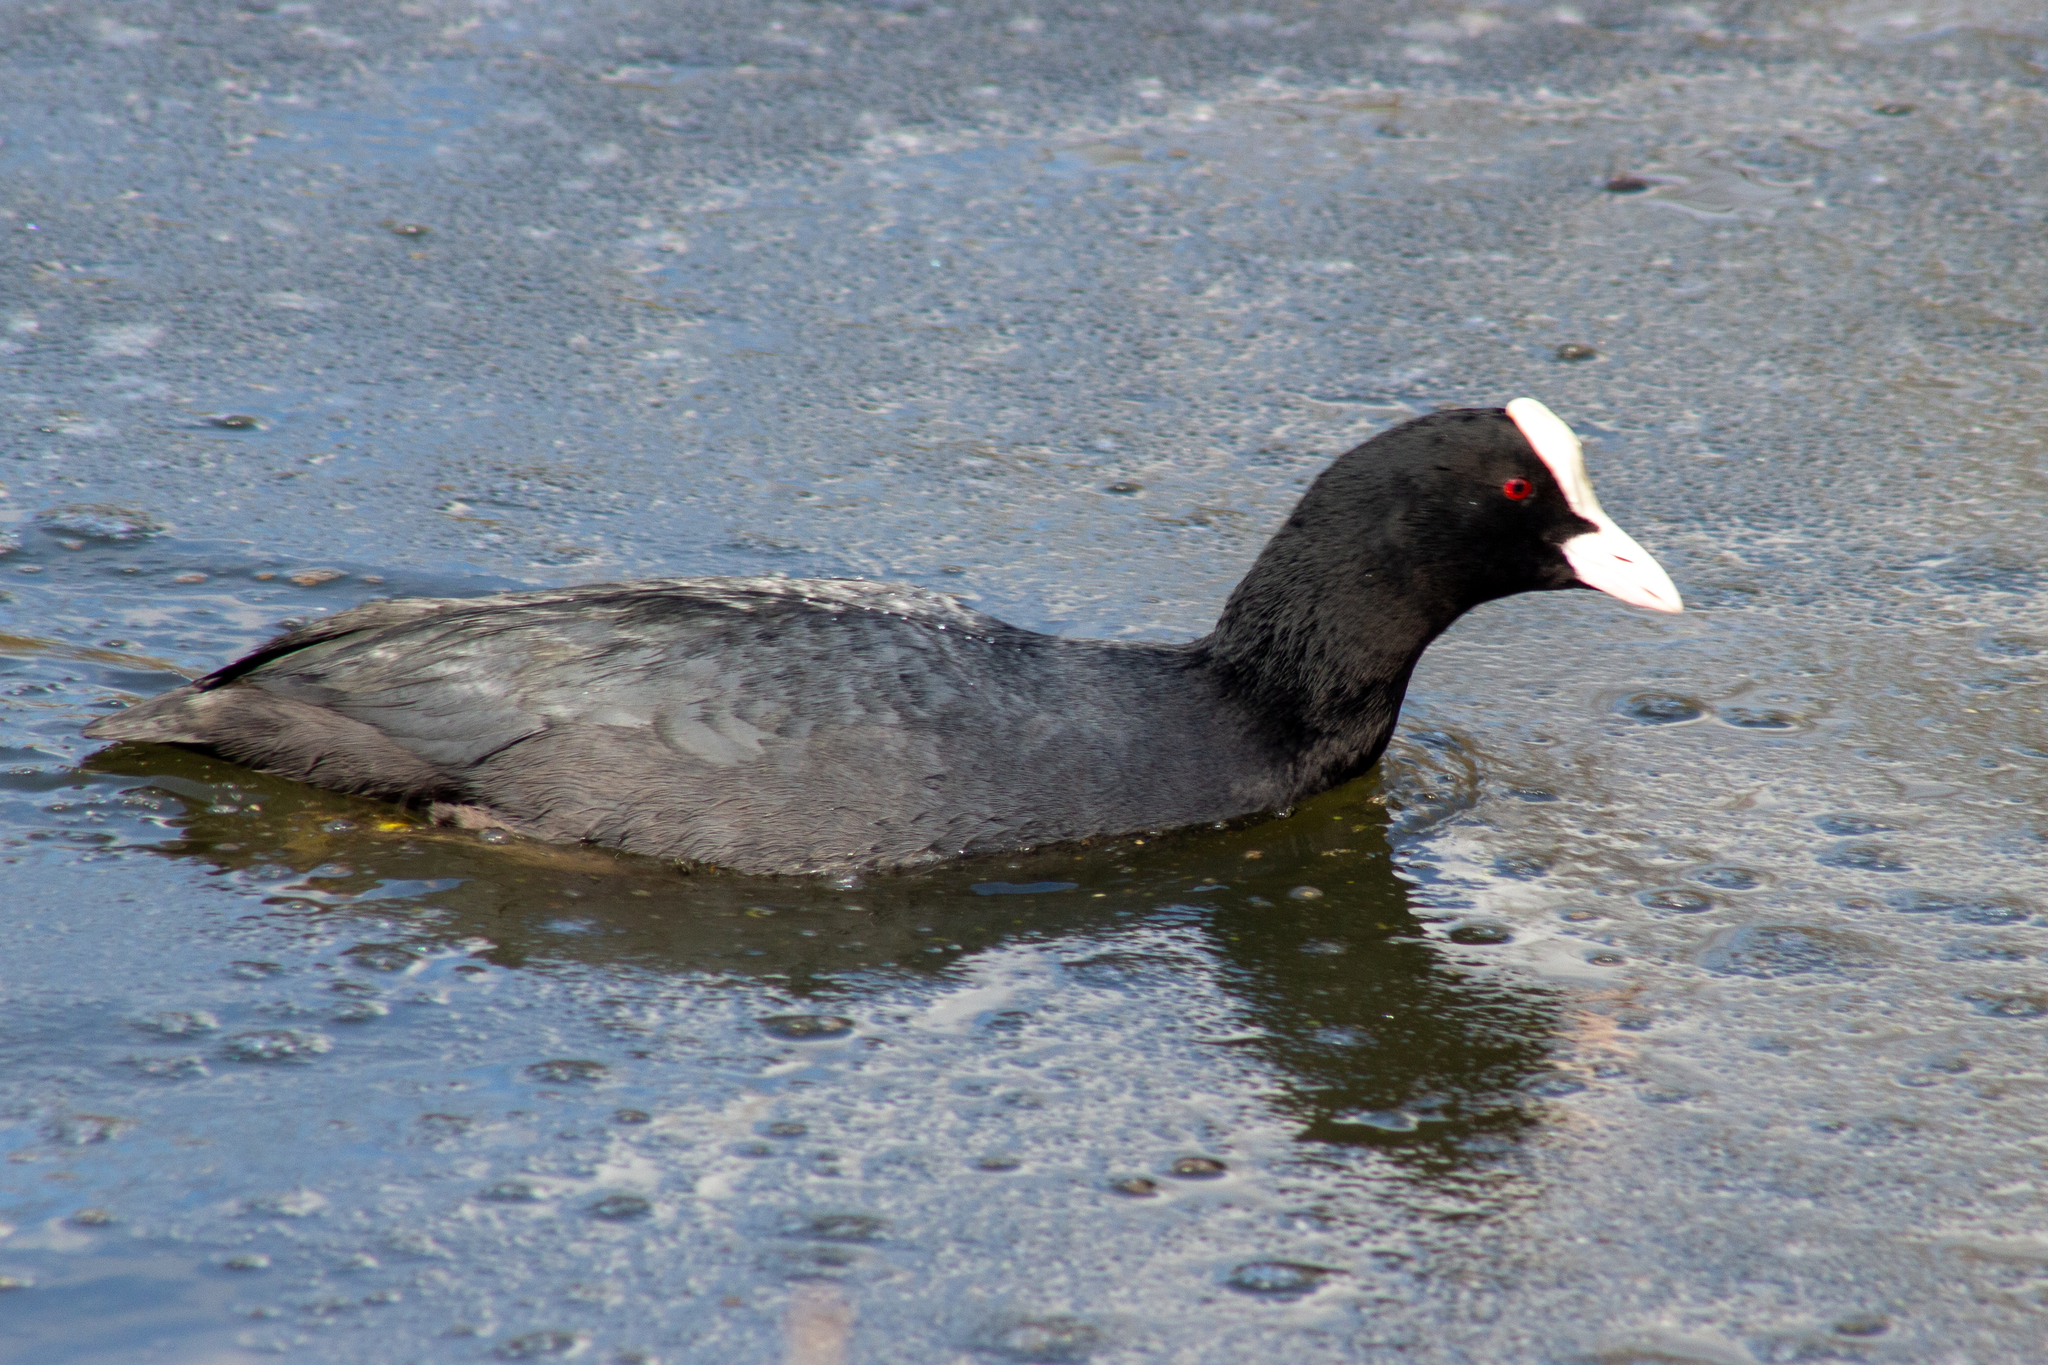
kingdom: Animalia
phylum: Chordata
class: Aves
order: Gruiformes
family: Rallidae
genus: Fulica
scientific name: Fulica atra
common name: Eurasian coot
